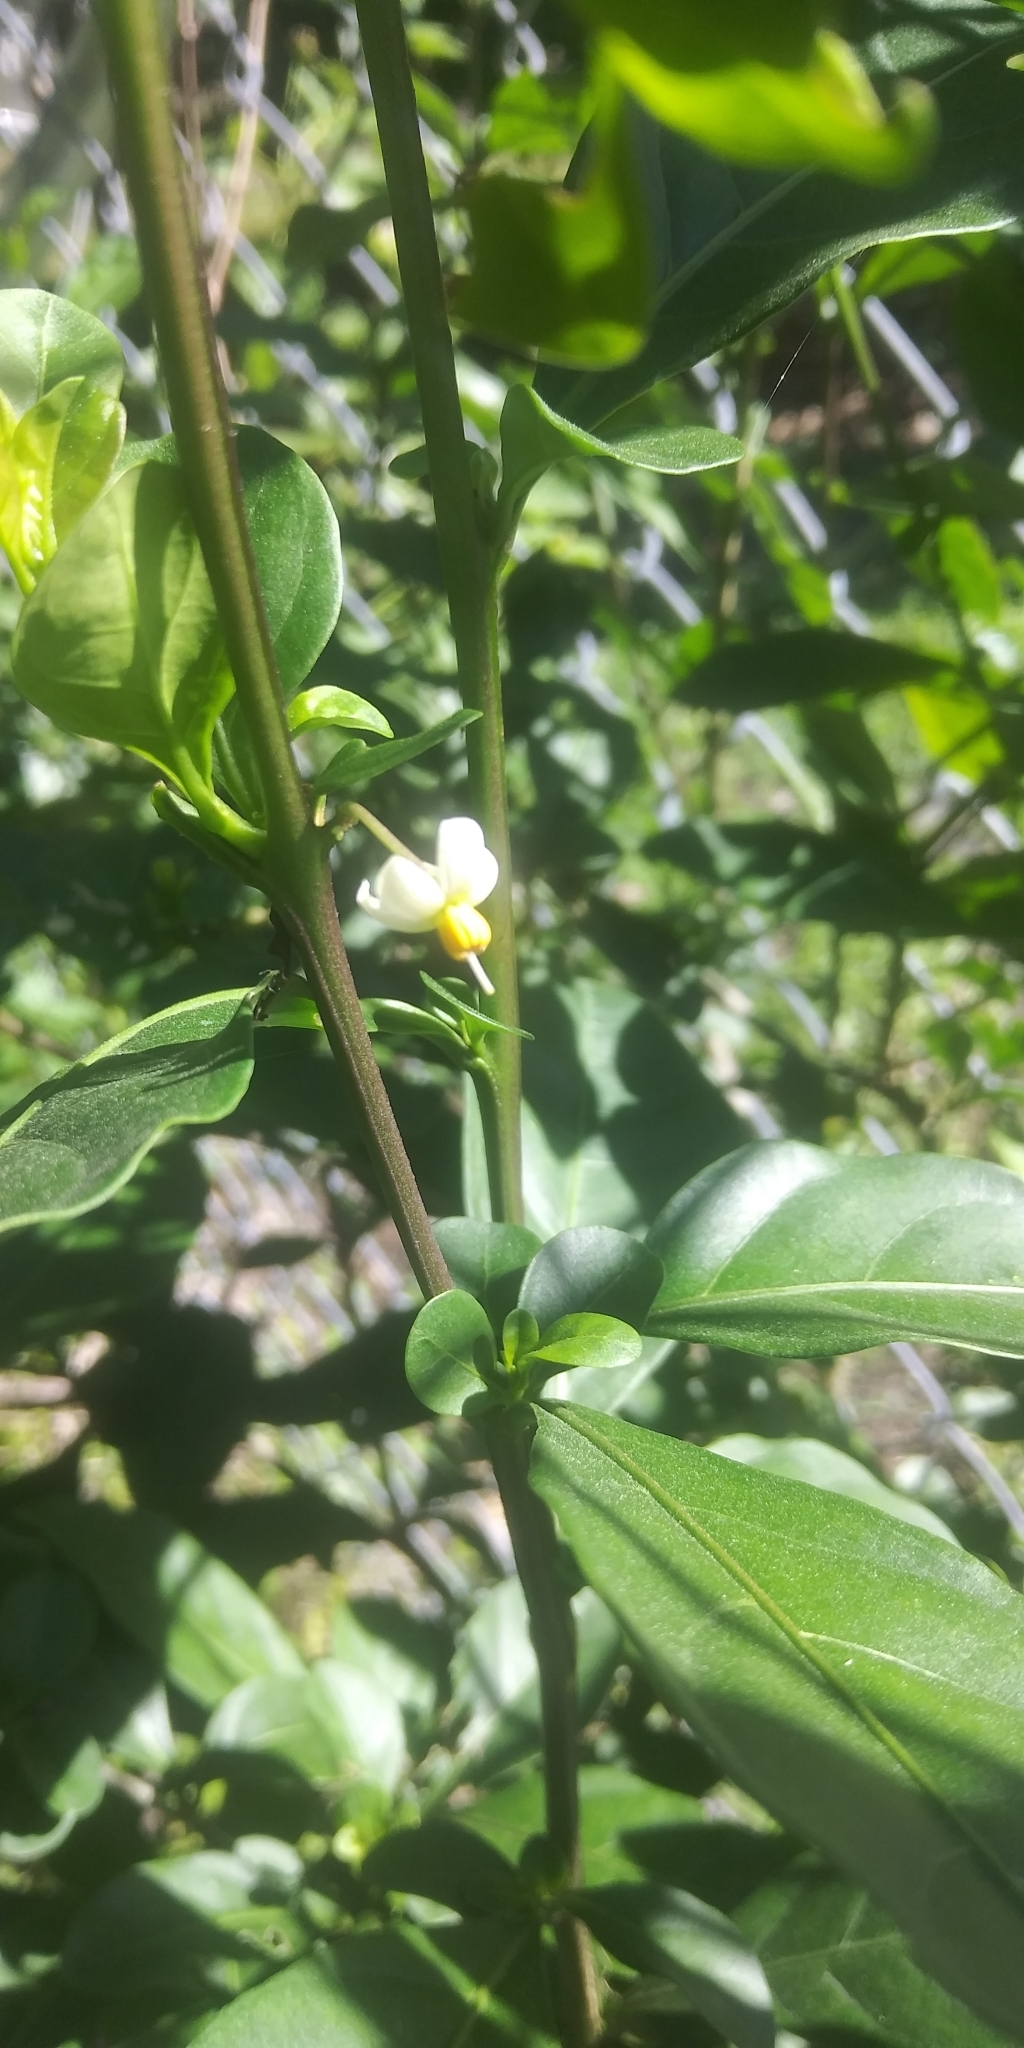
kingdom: Plantae
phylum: Tracheophyta
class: Magnoliopsida
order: Solanales
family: Solanaceae
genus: Solanum
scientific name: Solanum diphyllum
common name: Twoleaf nightshade
